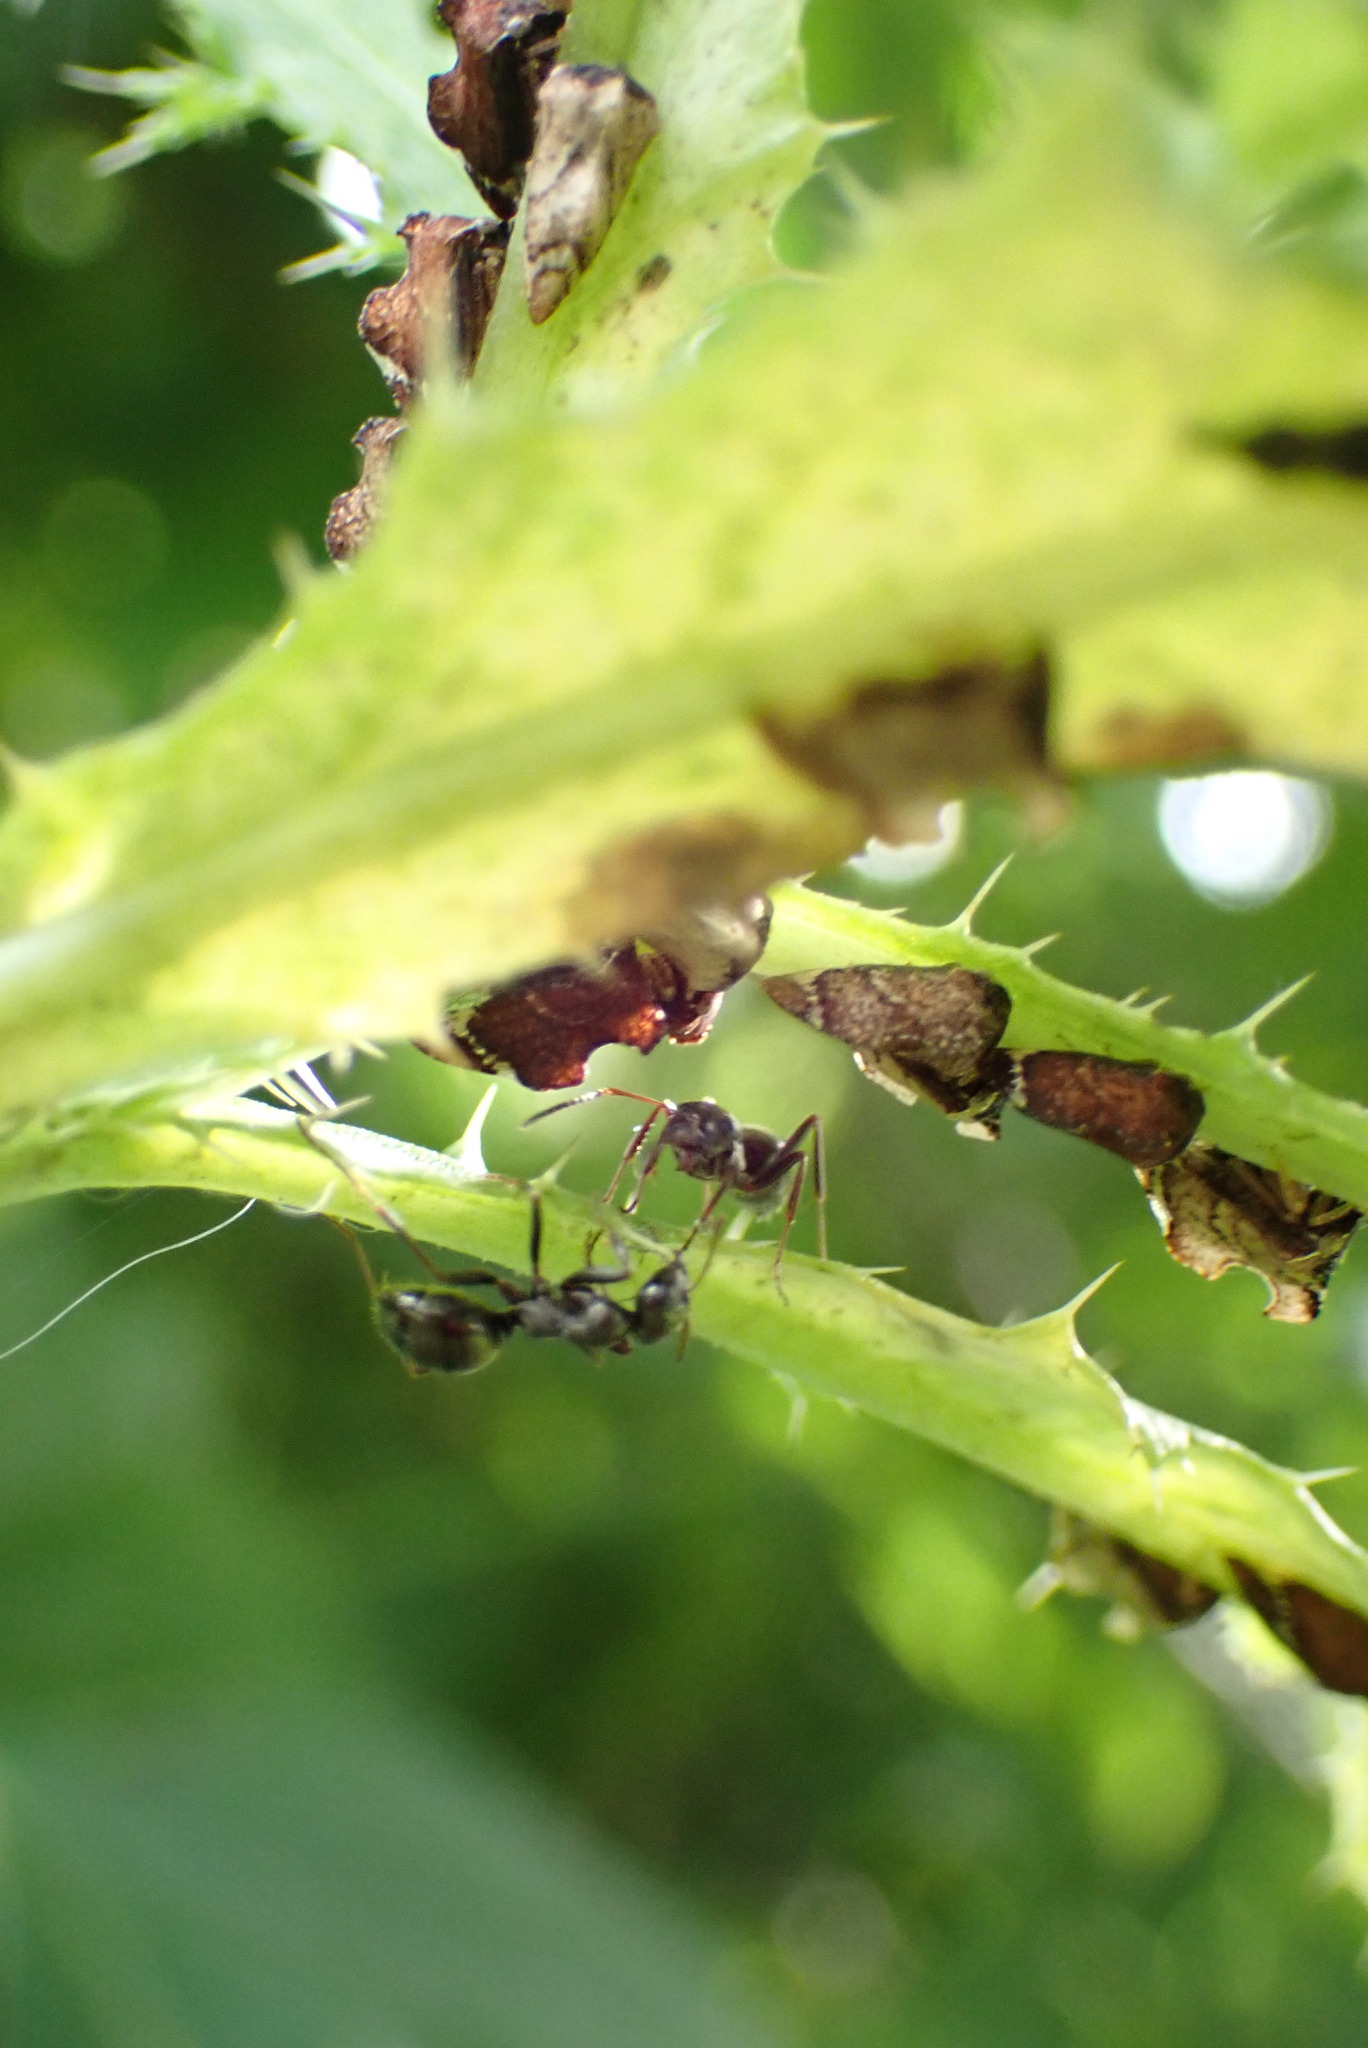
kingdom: Animalia
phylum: Arthropoda
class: Insecta
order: Hymenoptera
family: Formicidae
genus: Formica
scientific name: Formica
